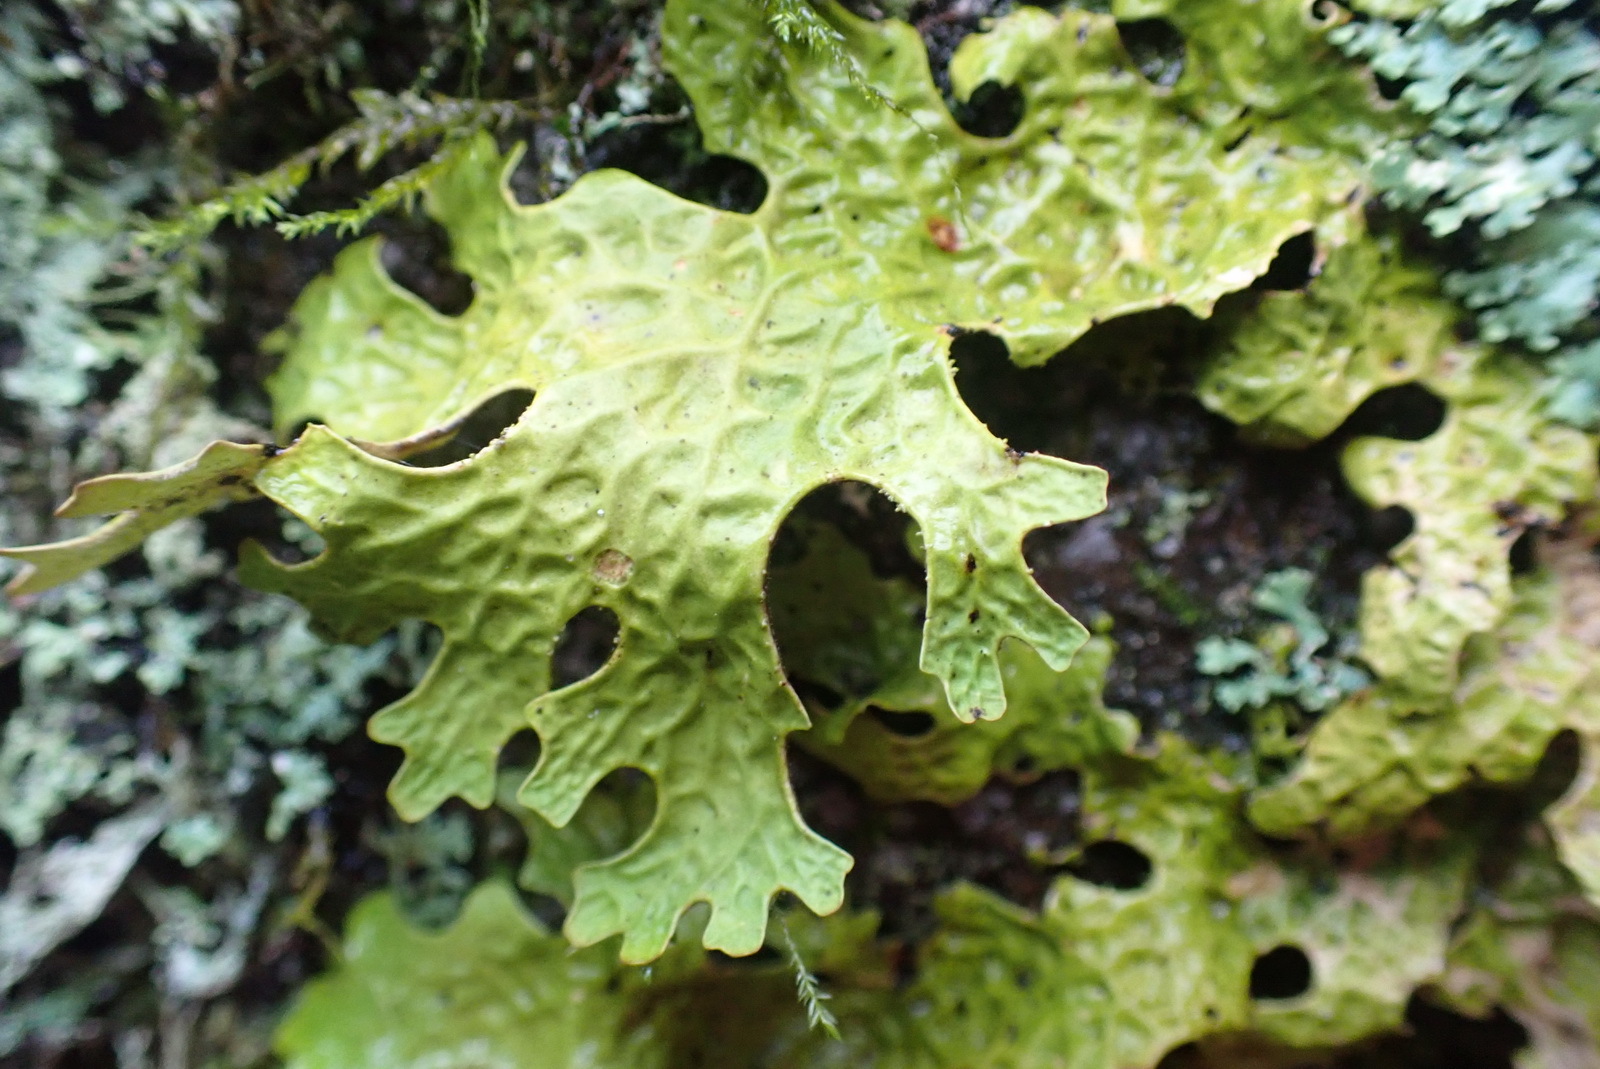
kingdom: Fungi
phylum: Ascomycota
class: Lecanoromycetes
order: Peltigerales
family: Lobariaceae
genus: Lobaria
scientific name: Lobaria pulmonaria
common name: Lungwort
